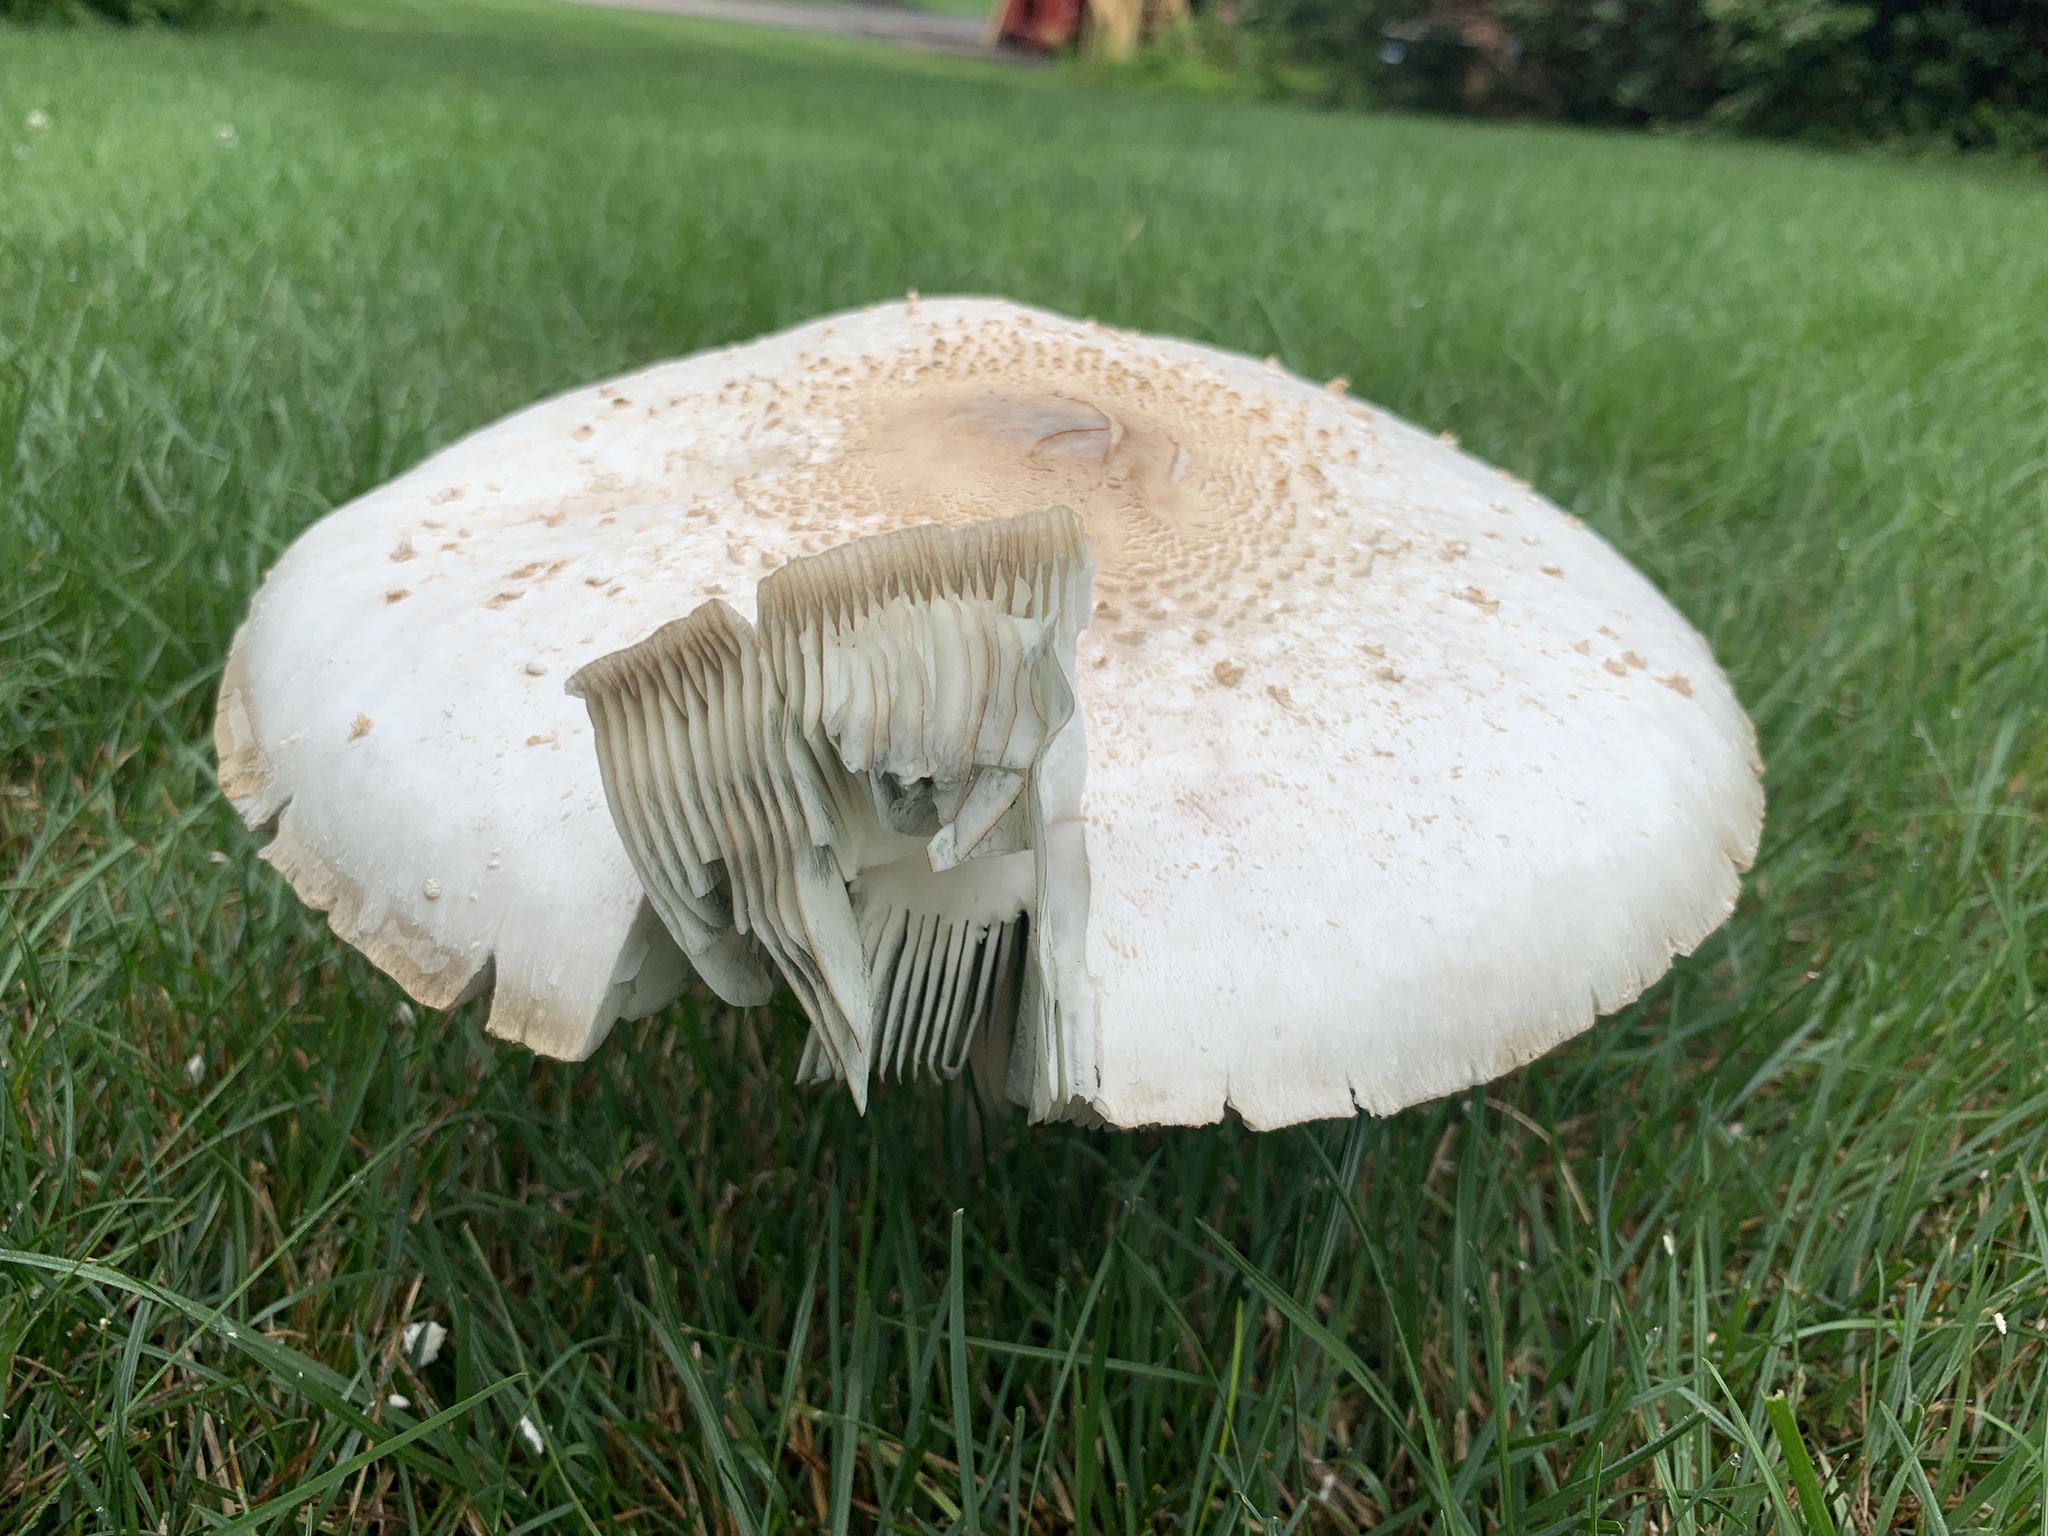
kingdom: Fungi
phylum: Basidiomycota
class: Agaricomycetes
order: Agaricales
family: Agaricaceae
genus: Chlorophyllum
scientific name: Chlorophyllum molybdites
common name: False parasol
